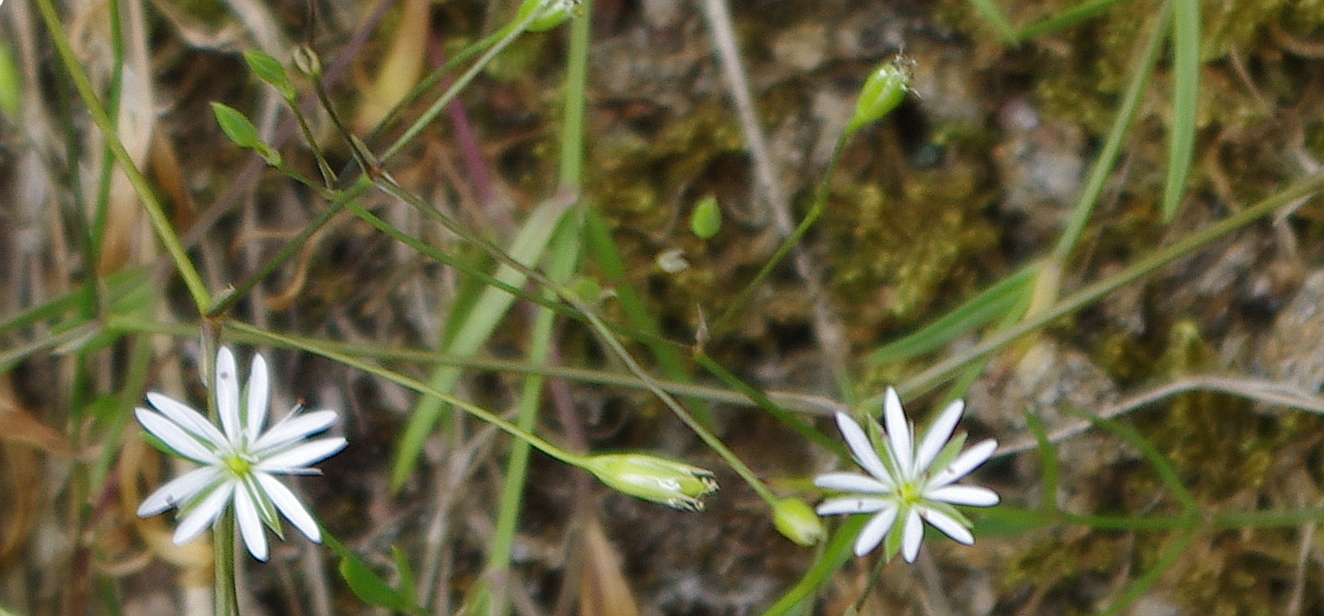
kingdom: Plantae
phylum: Tracheophyta
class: Magnoliopsida
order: Caryophyllales
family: Caryophyllaceae
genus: Stellaria
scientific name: Stellaria graminea
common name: Grass-like starwort
